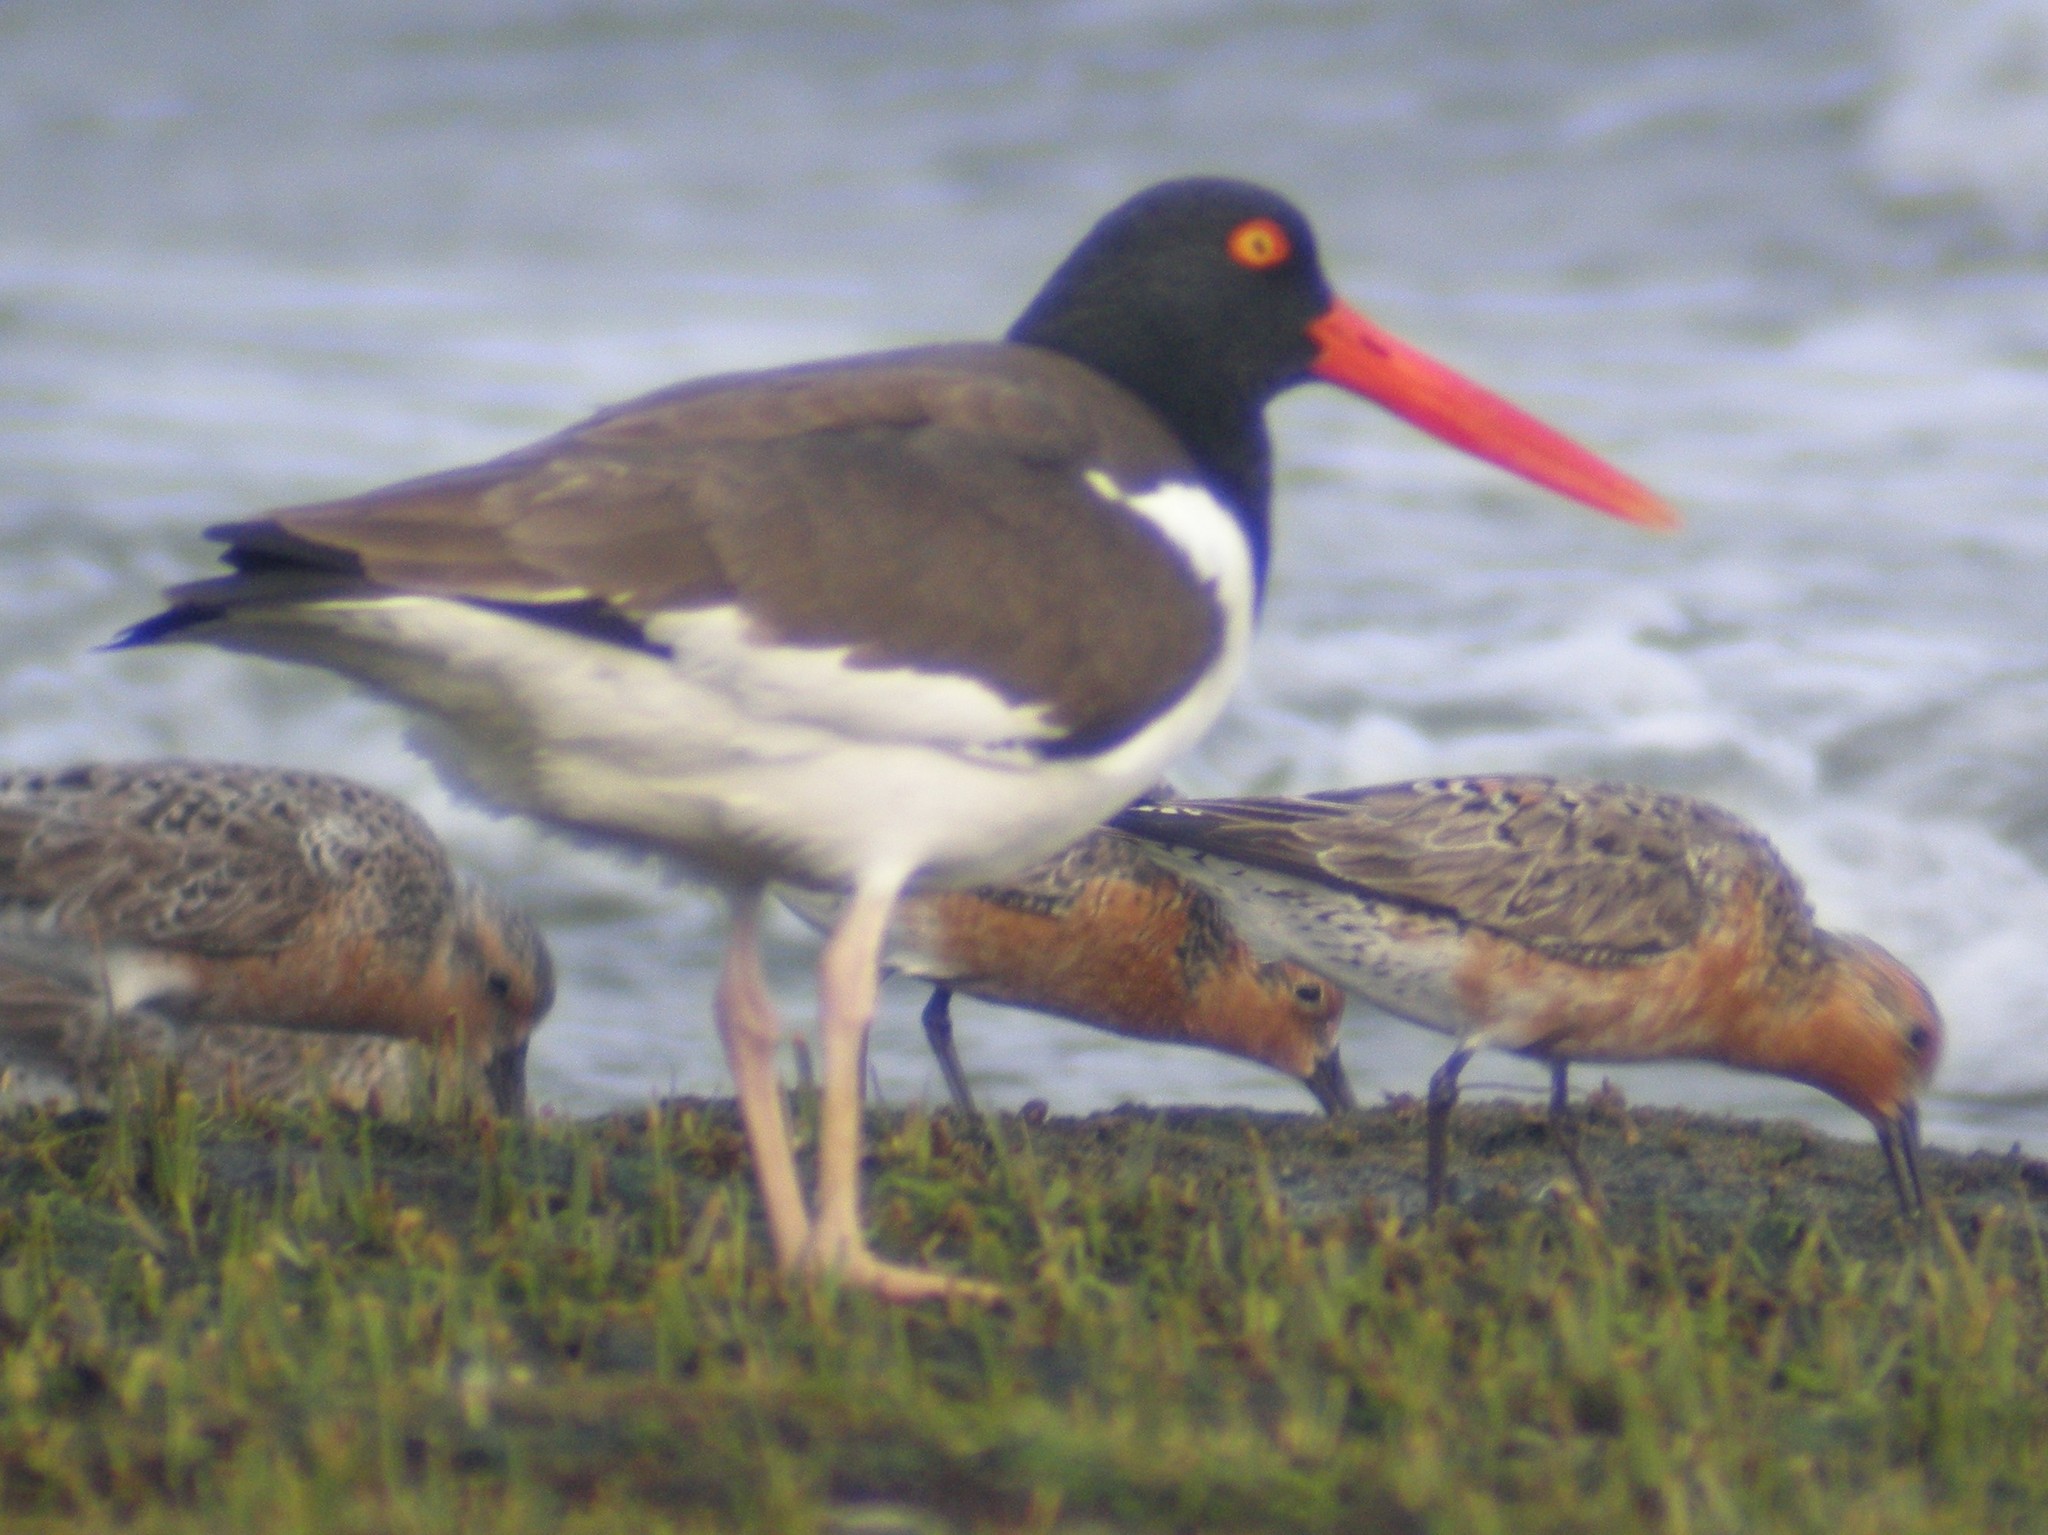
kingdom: Animalia
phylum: Chordata
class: Aves
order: Charadriiformes
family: Haematopodidae
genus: Haematopus
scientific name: Haematopus palliatus
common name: American oystercatcher
